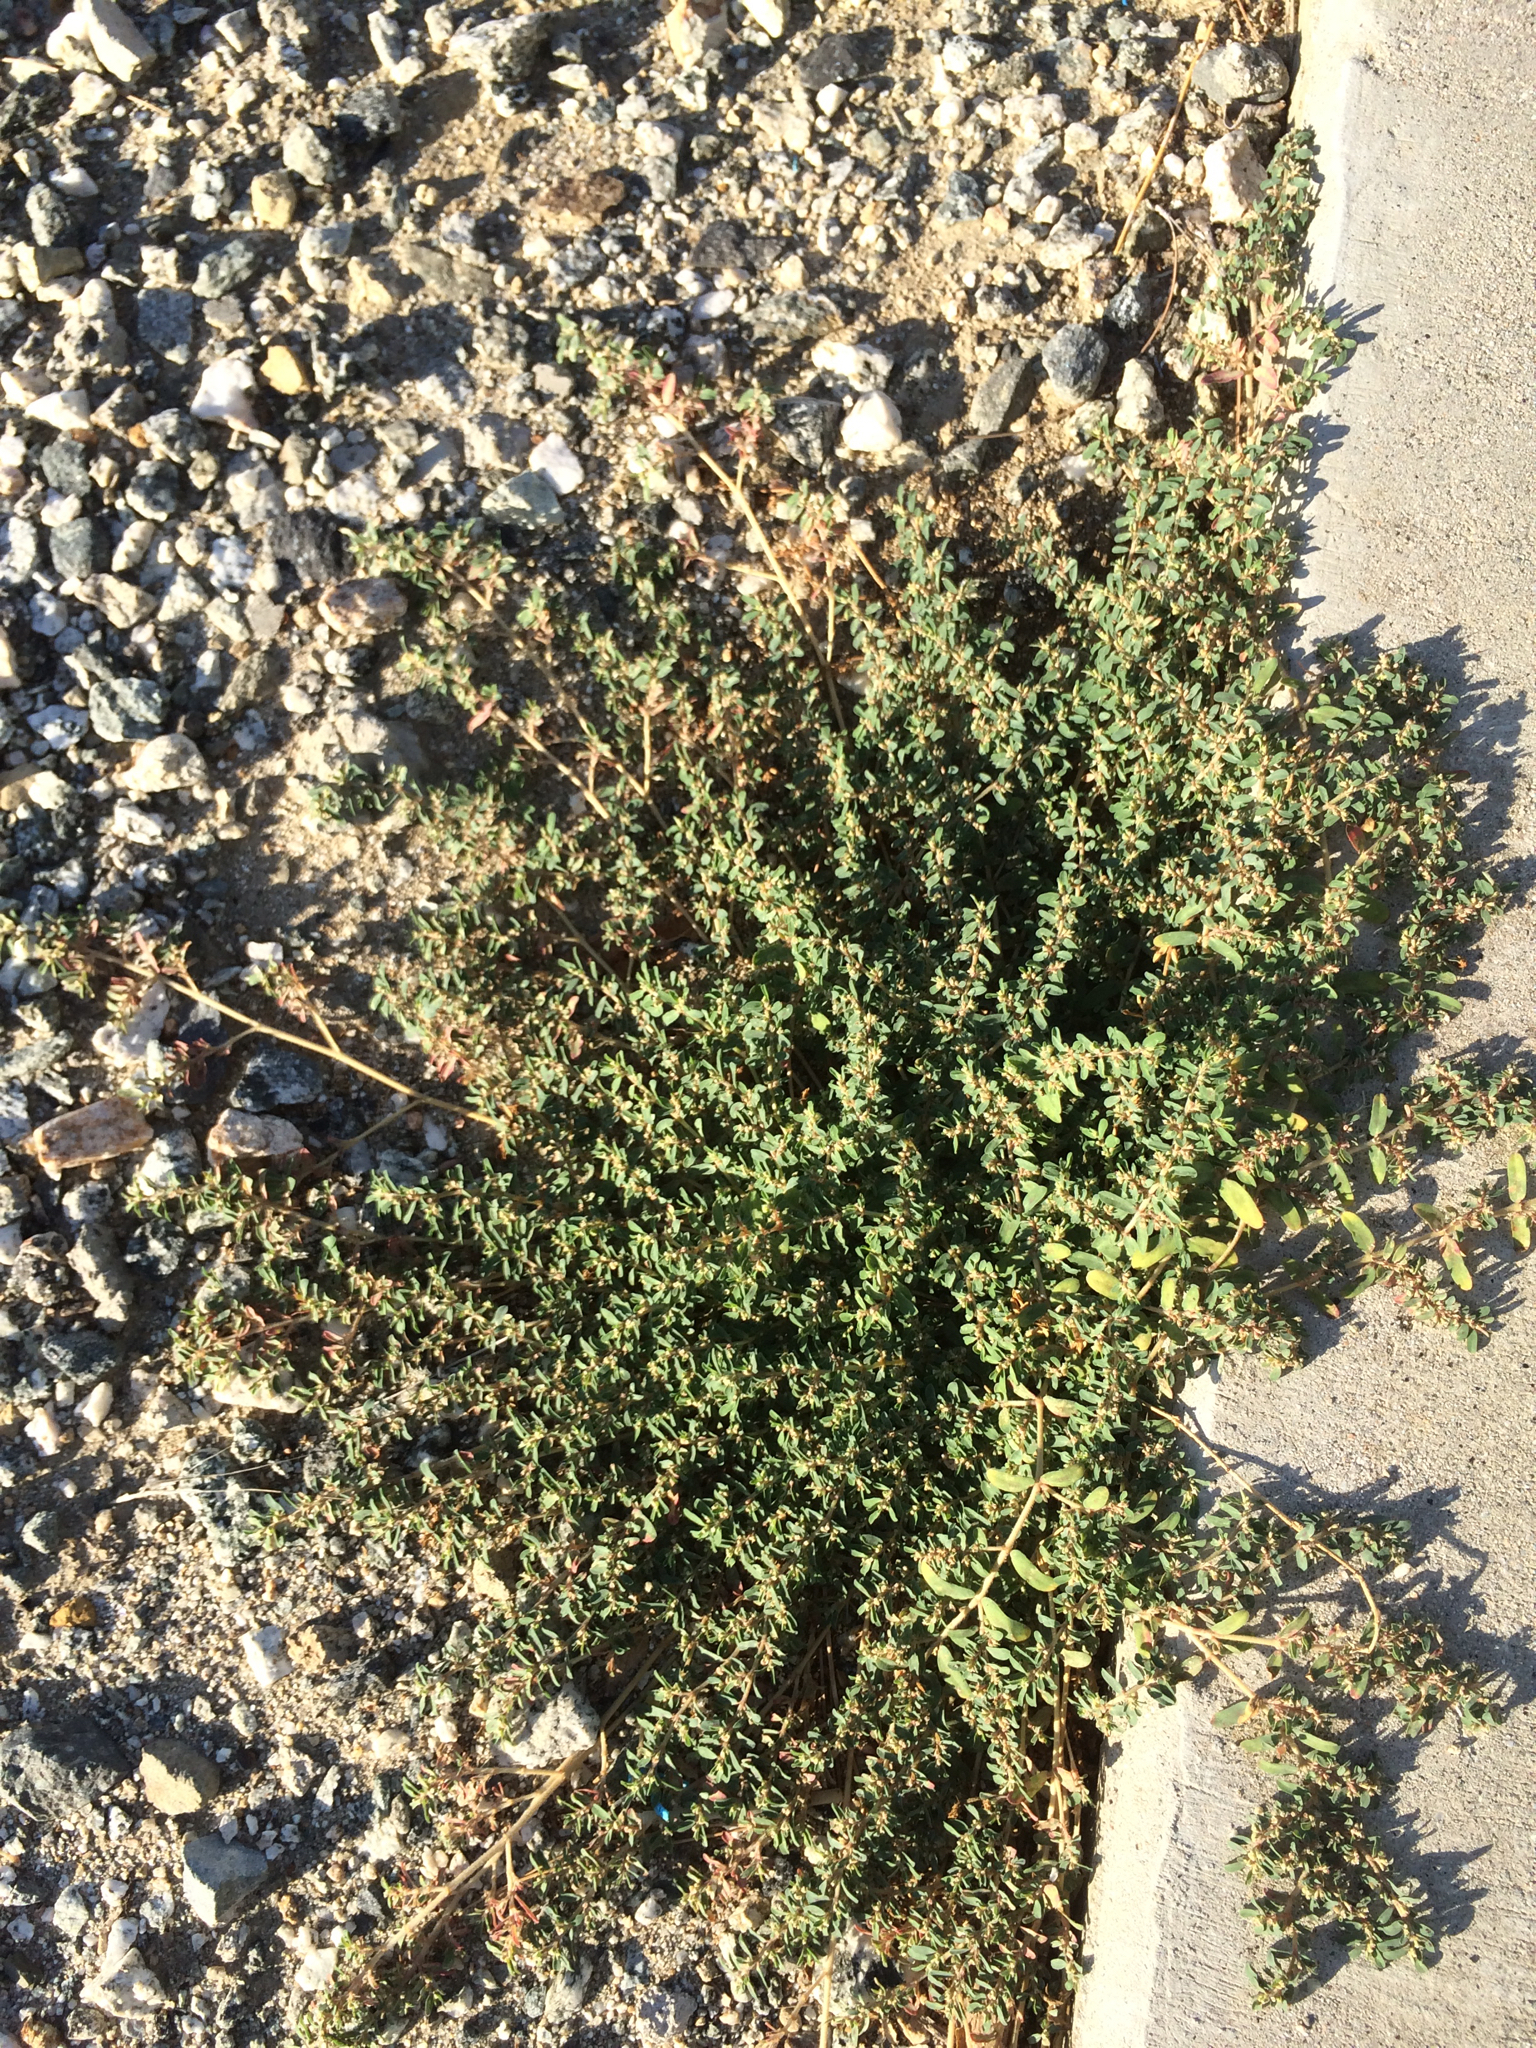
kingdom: Plantae
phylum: Tracheophyta
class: Magnoliopsida
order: Malpighiales
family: Euphorbiaceae
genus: Euphorbia
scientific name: Euphorbia maculata
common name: Spotted spurge
